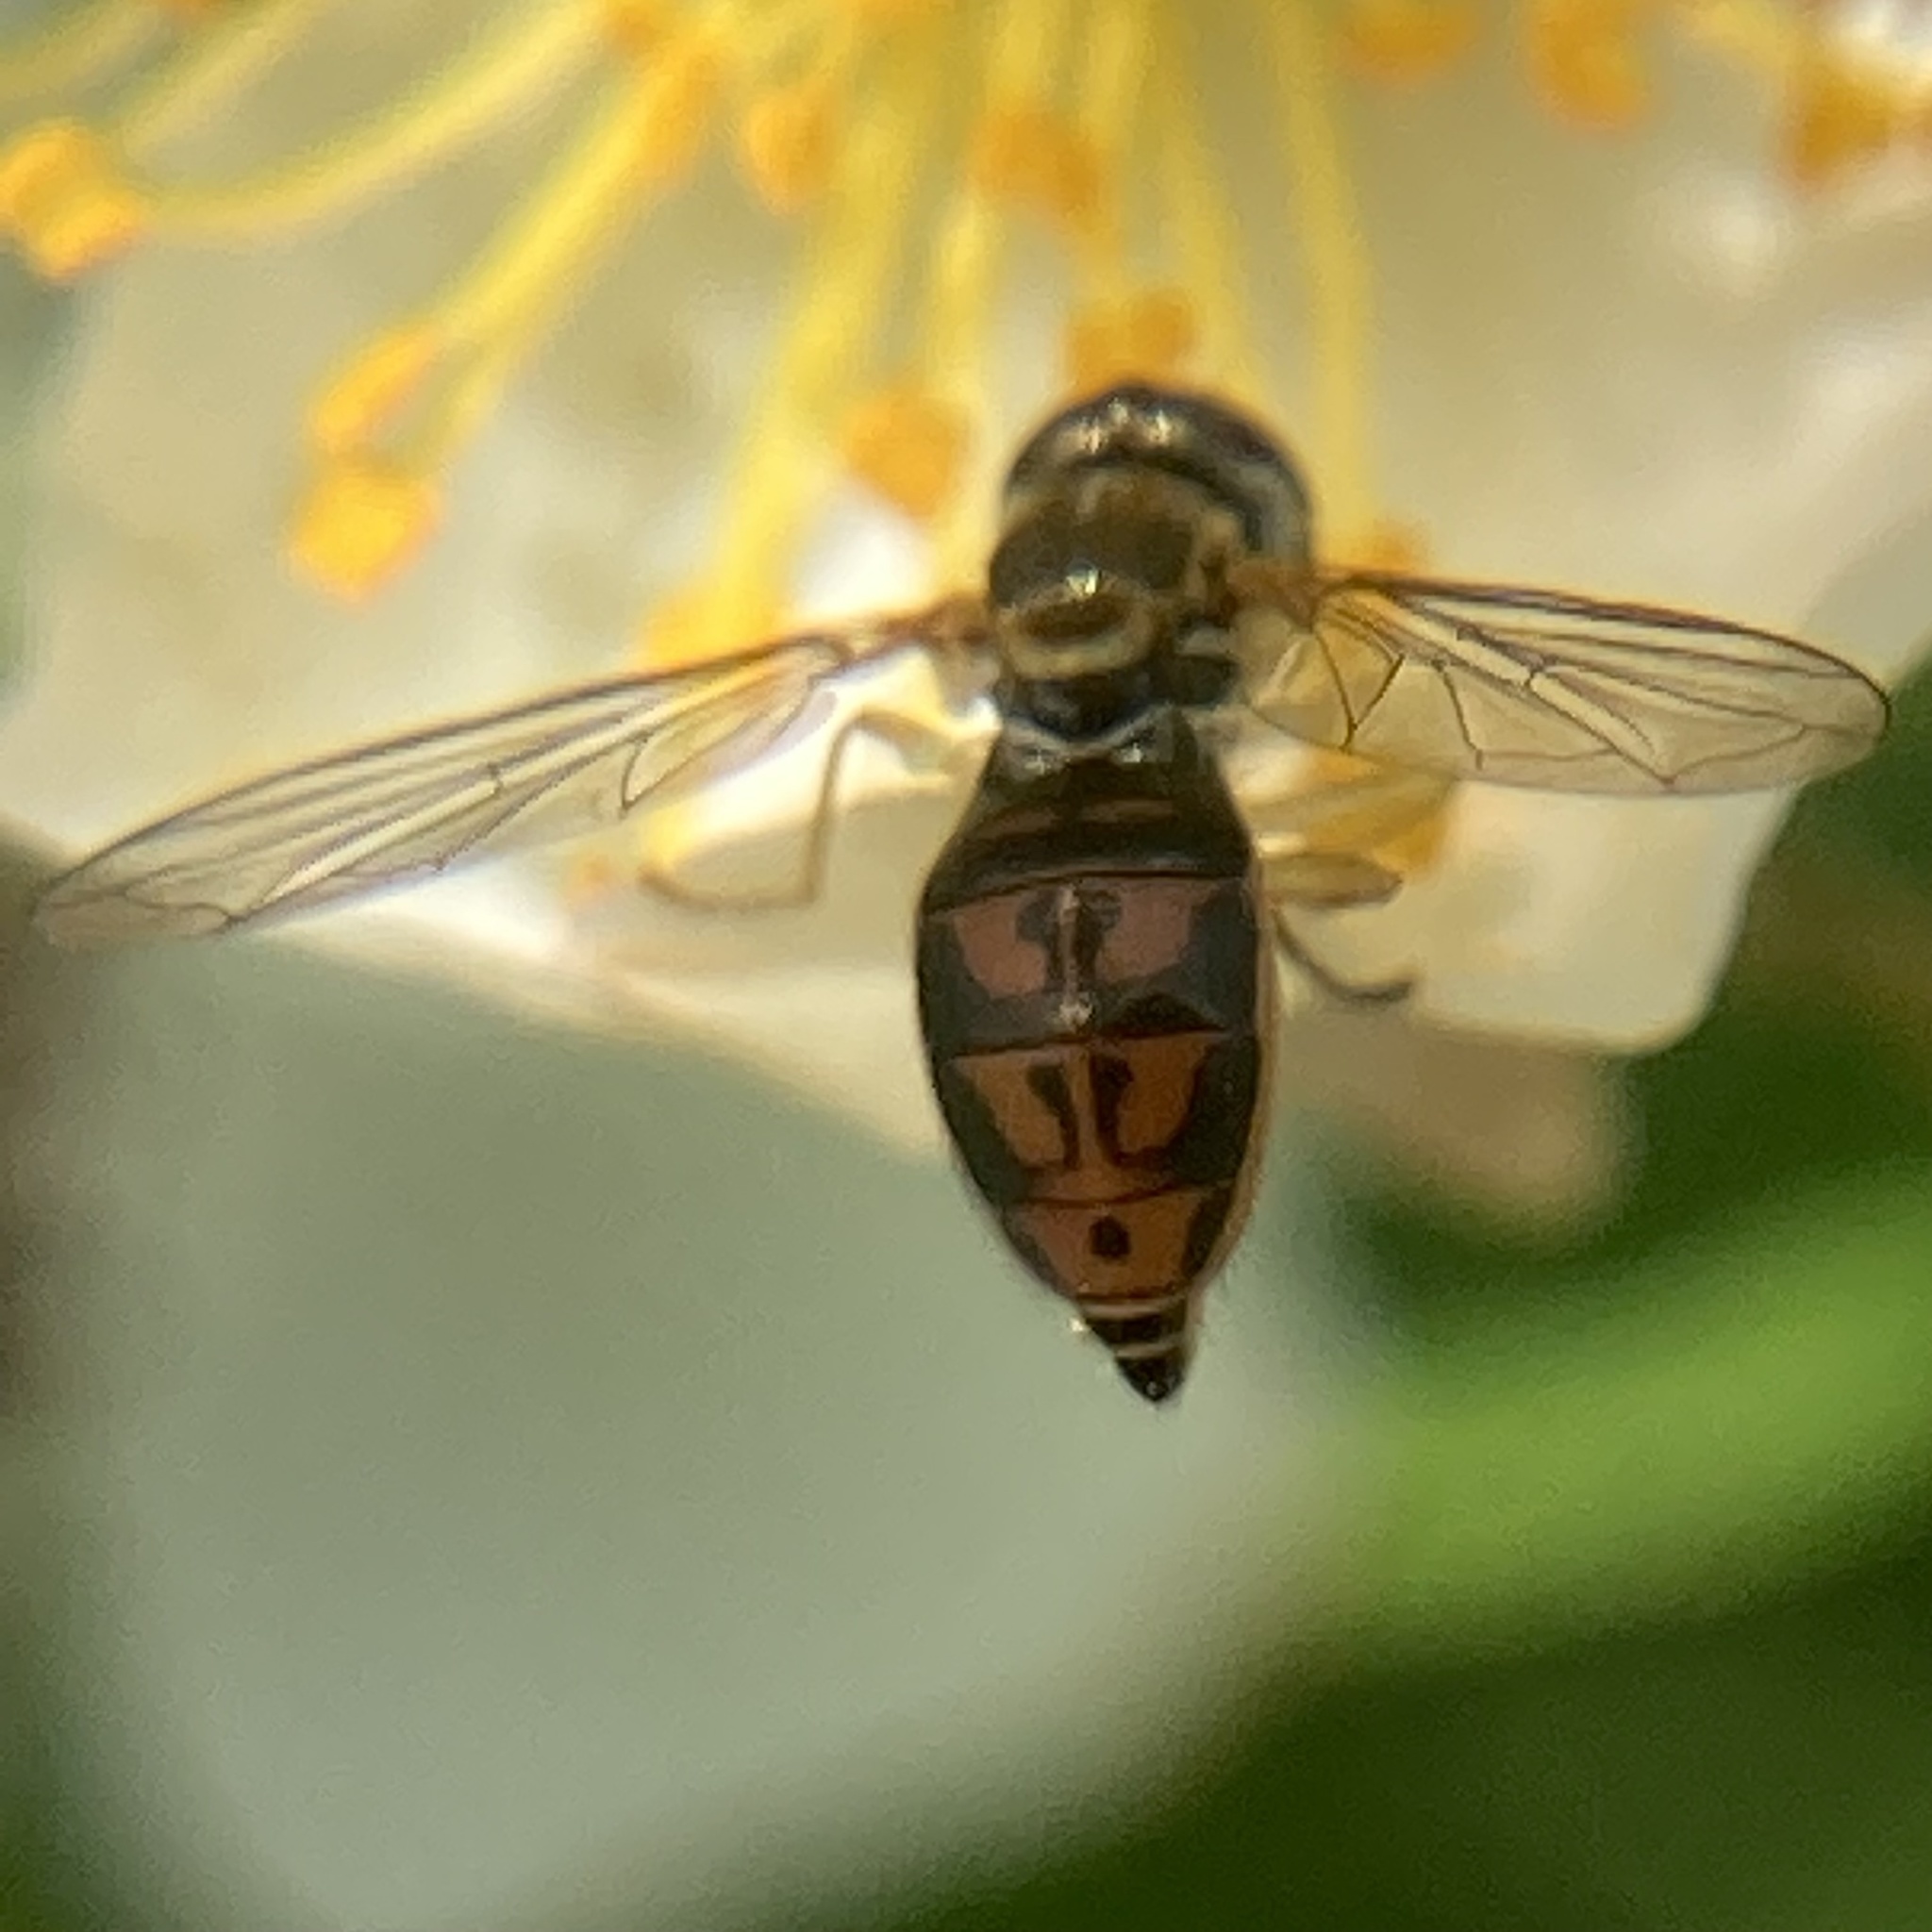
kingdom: Animalia
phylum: Arthropoda
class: Insecta
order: Diptera
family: Syrphidae
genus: Toxomerus
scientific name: Toxomerus marginatus
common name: Syrphid fly
